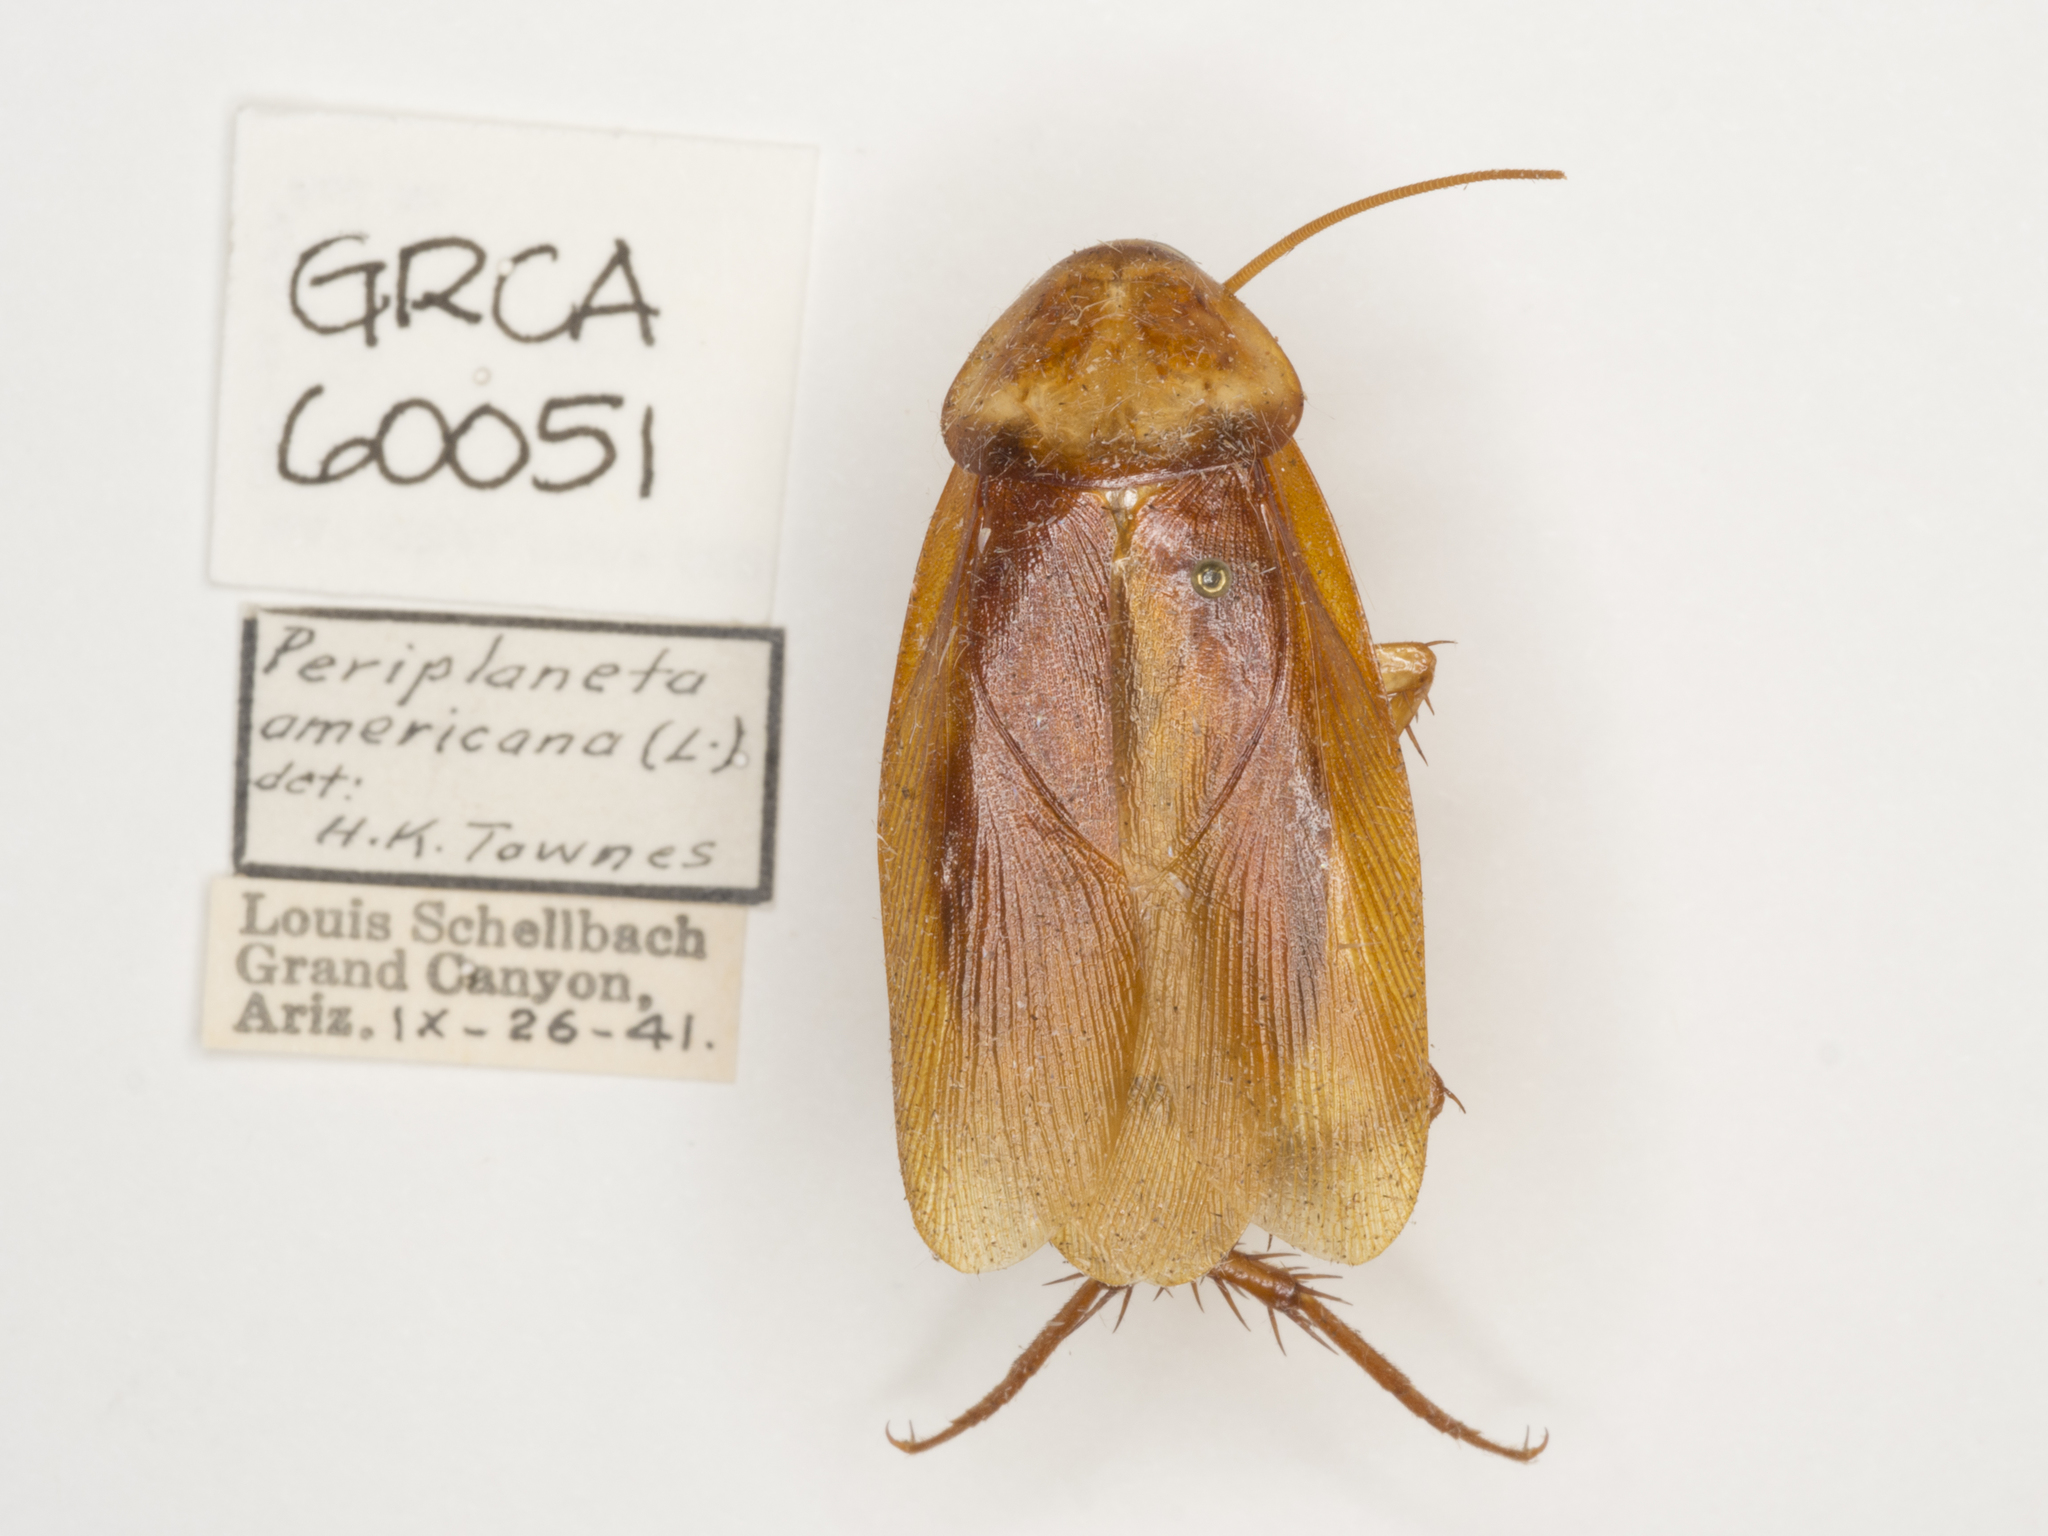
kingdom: Animalia
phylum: Arthropoda
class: Insecta
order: Blattodea
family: Blattidae
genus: Periplaneta
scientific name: Periplaneta americana
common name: American cockroach
